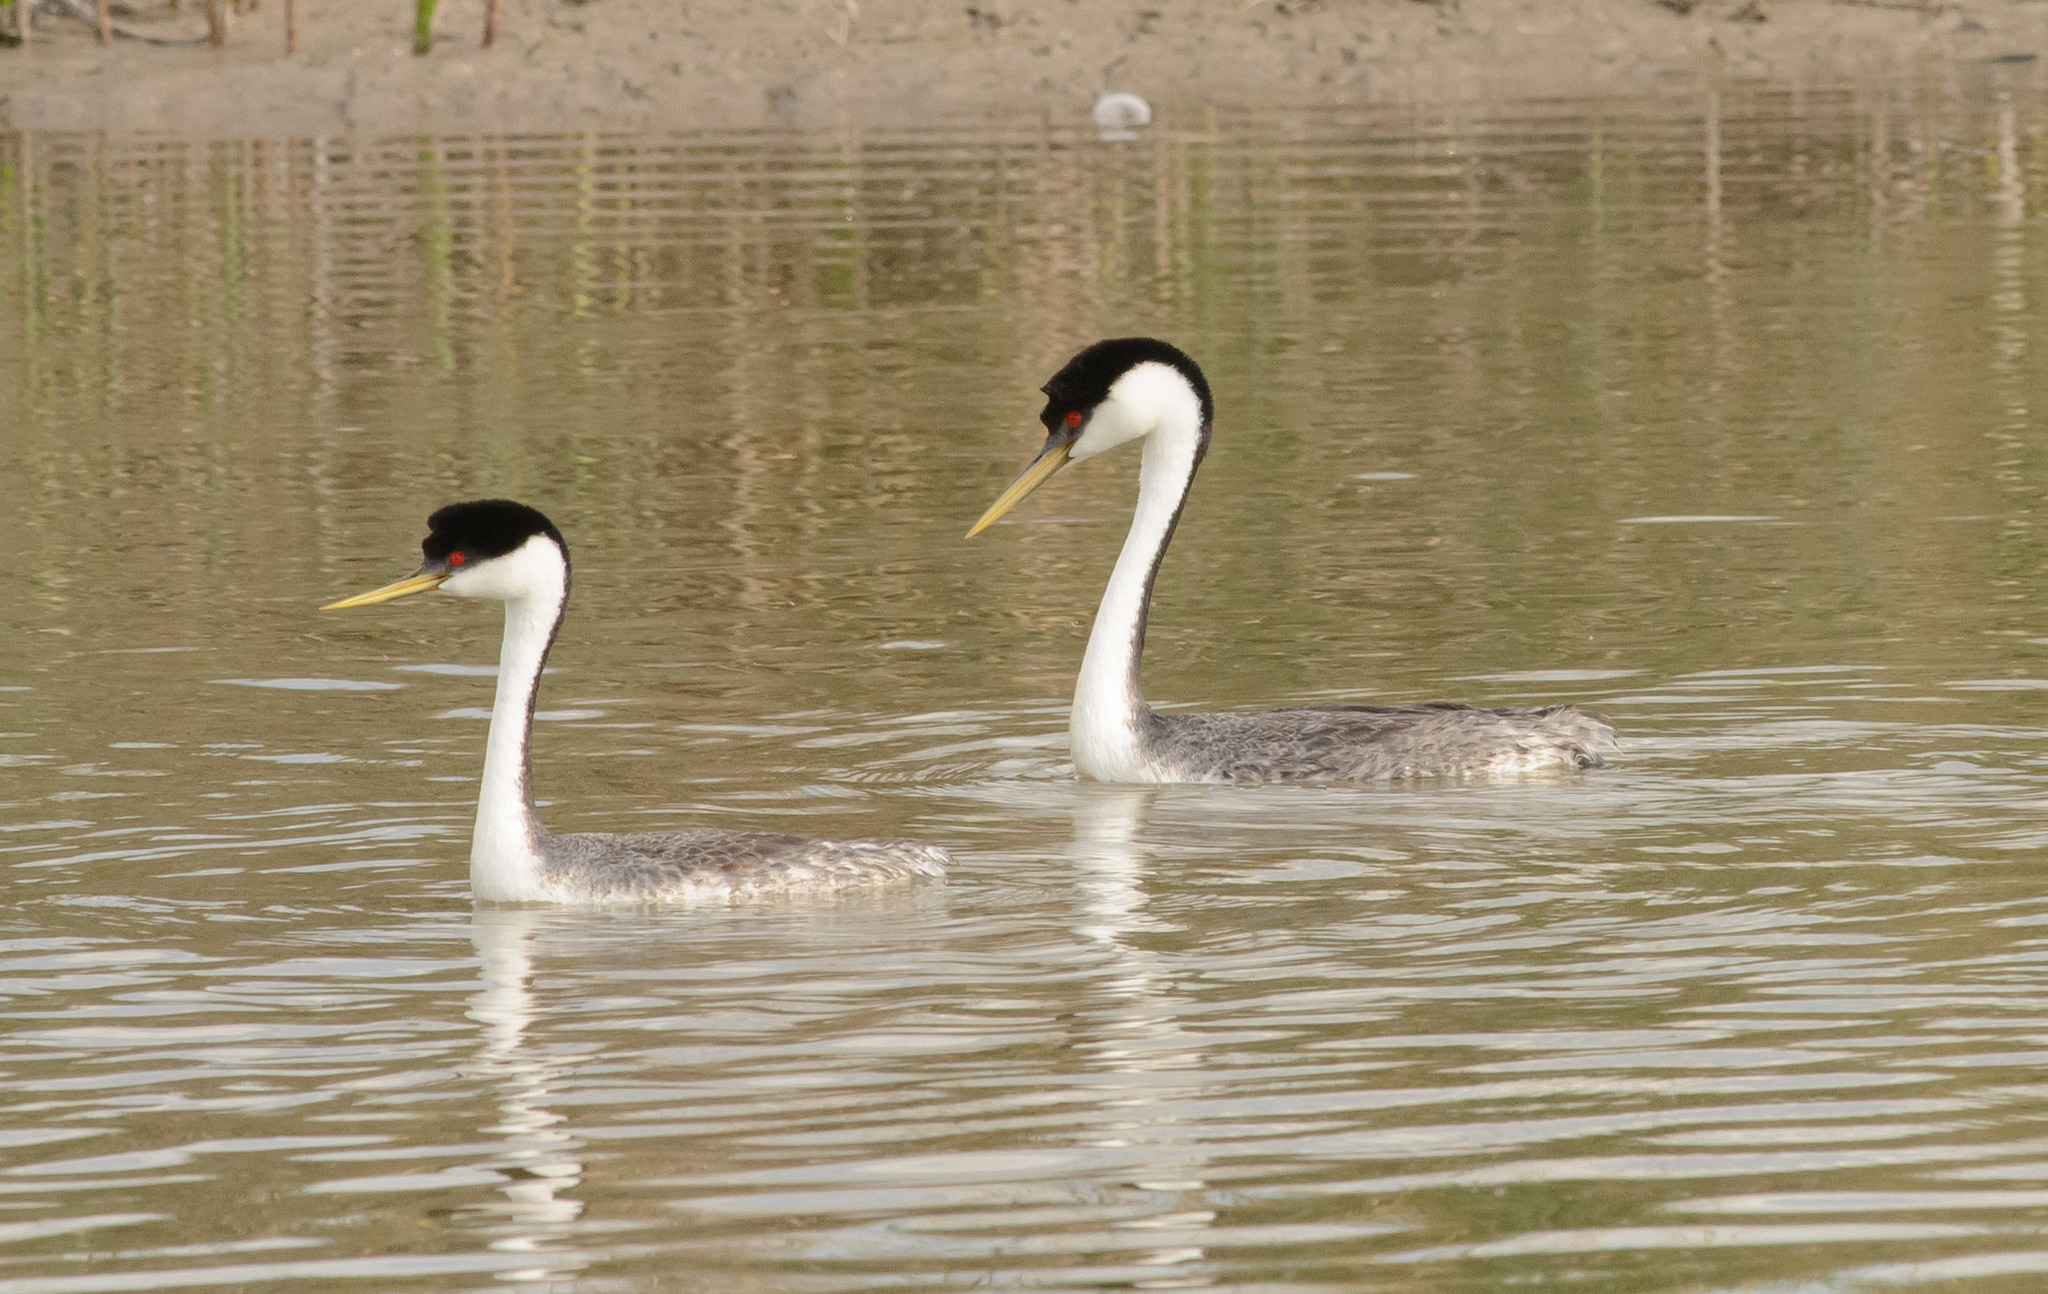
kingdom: Animalia
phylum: Chordata
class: Aves
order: Podicipediformes
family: Podicipedidae
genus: Aechmophorus
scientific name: Aechmophorus occidentalis
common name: Western grebe
